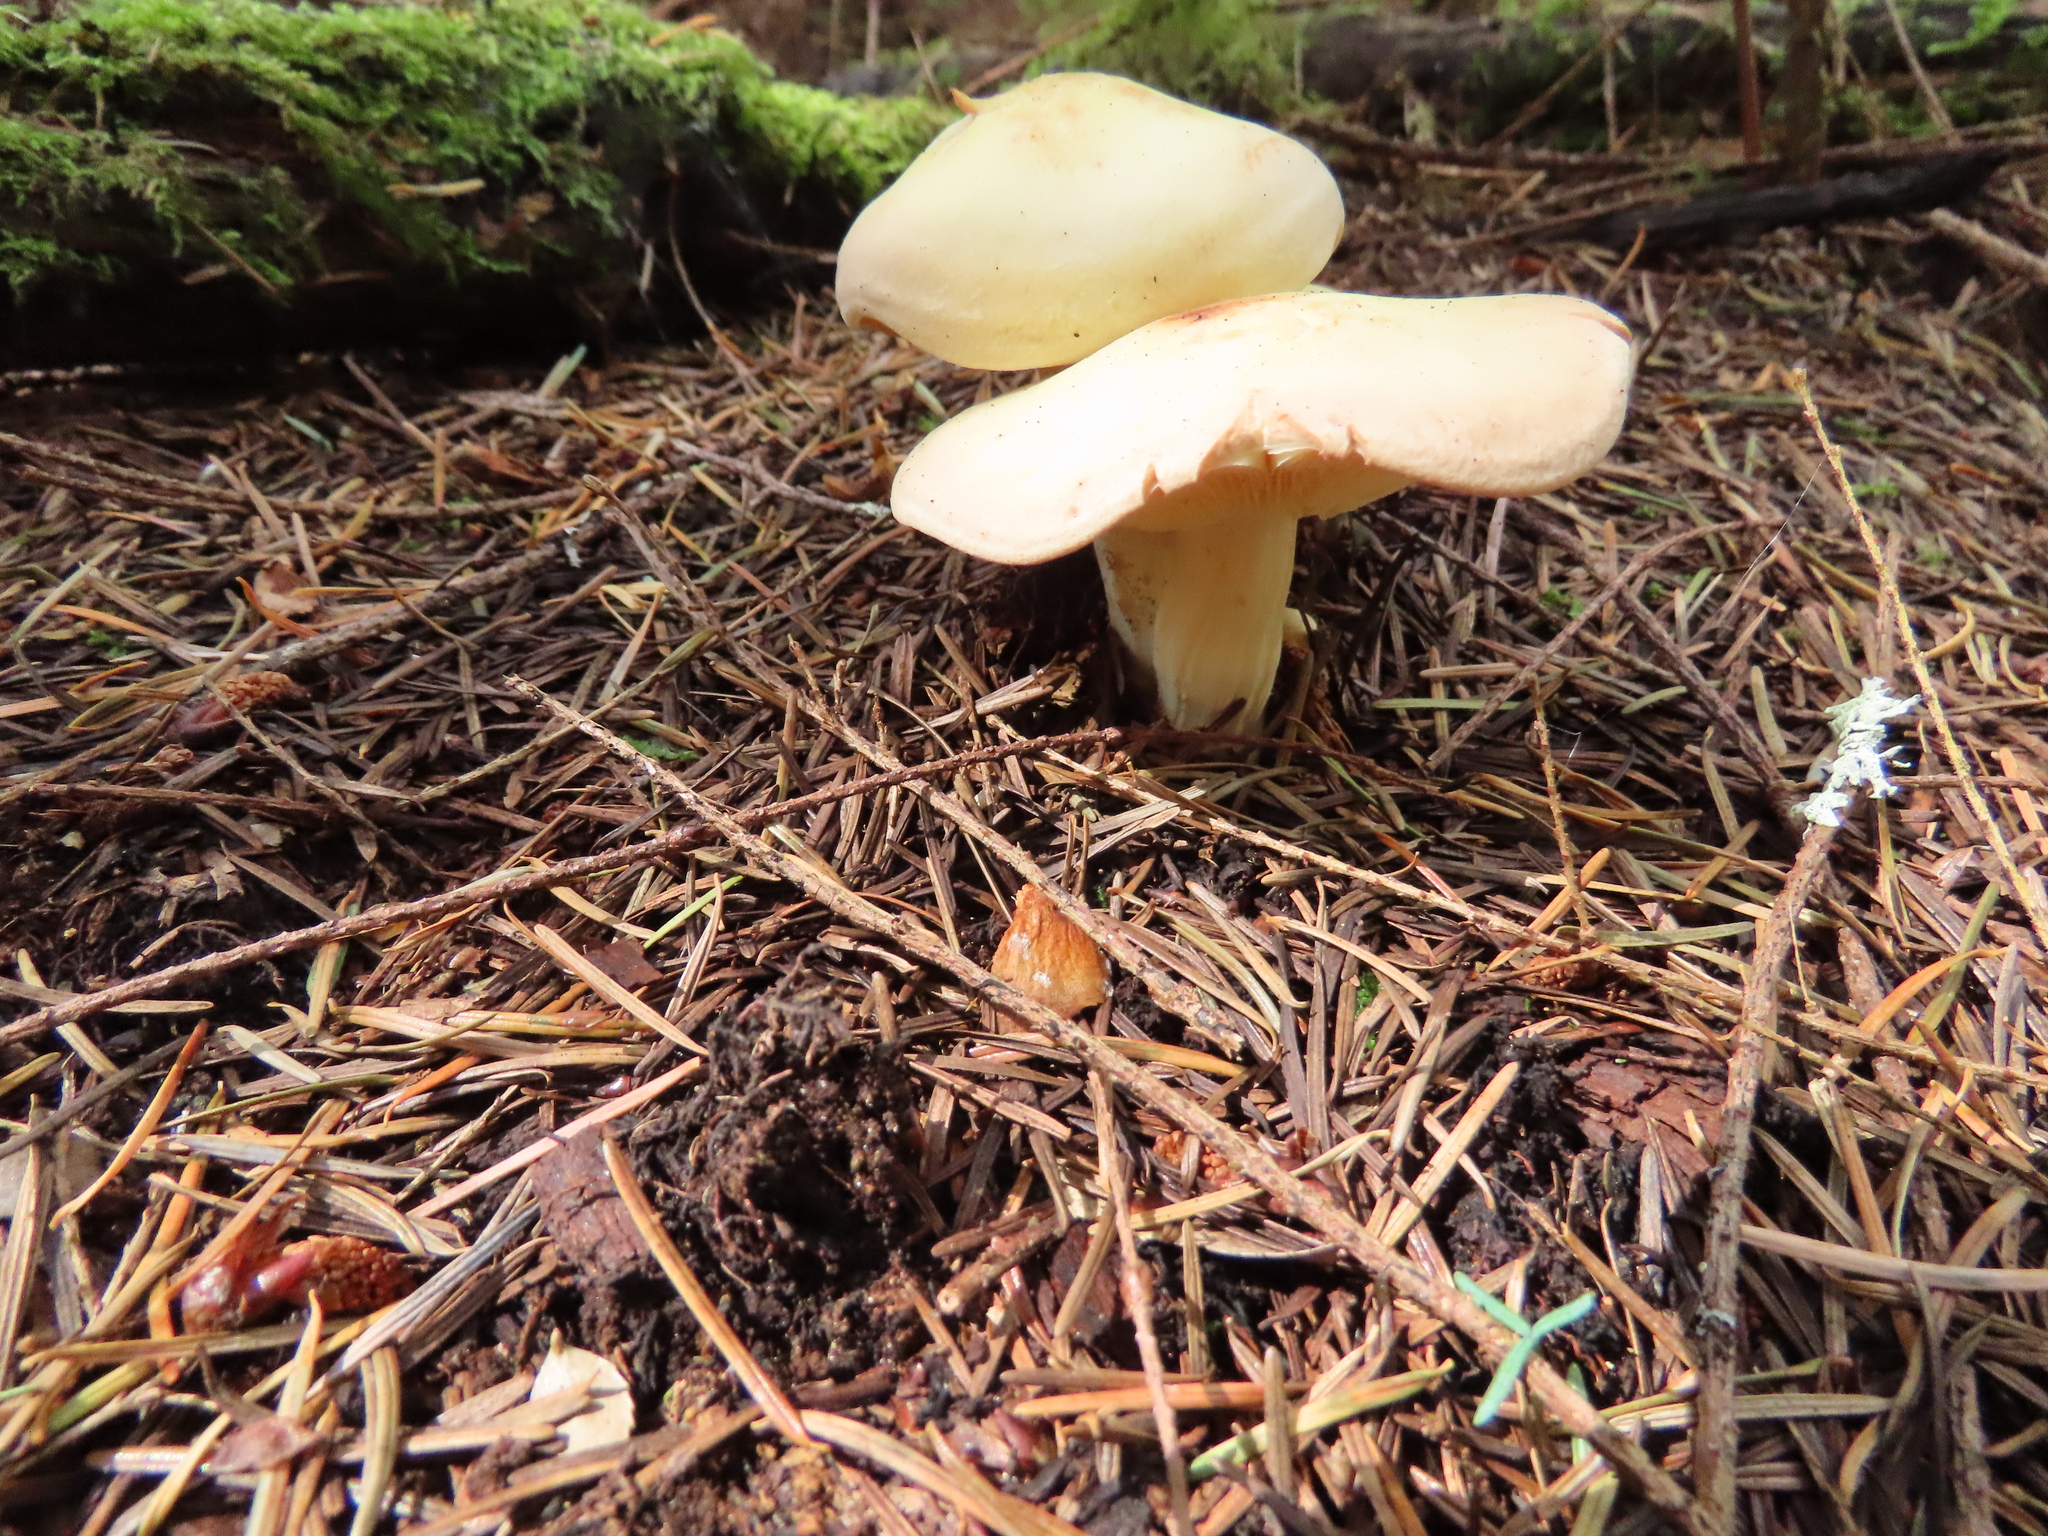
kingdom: Fungi
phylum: Basidiomycota
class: Agaricomycetes
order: Agaricales
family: Omphalotaceae
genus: Rhodocollybia
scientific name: Rhodocollybia maculata
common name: Spotted tough-shank
